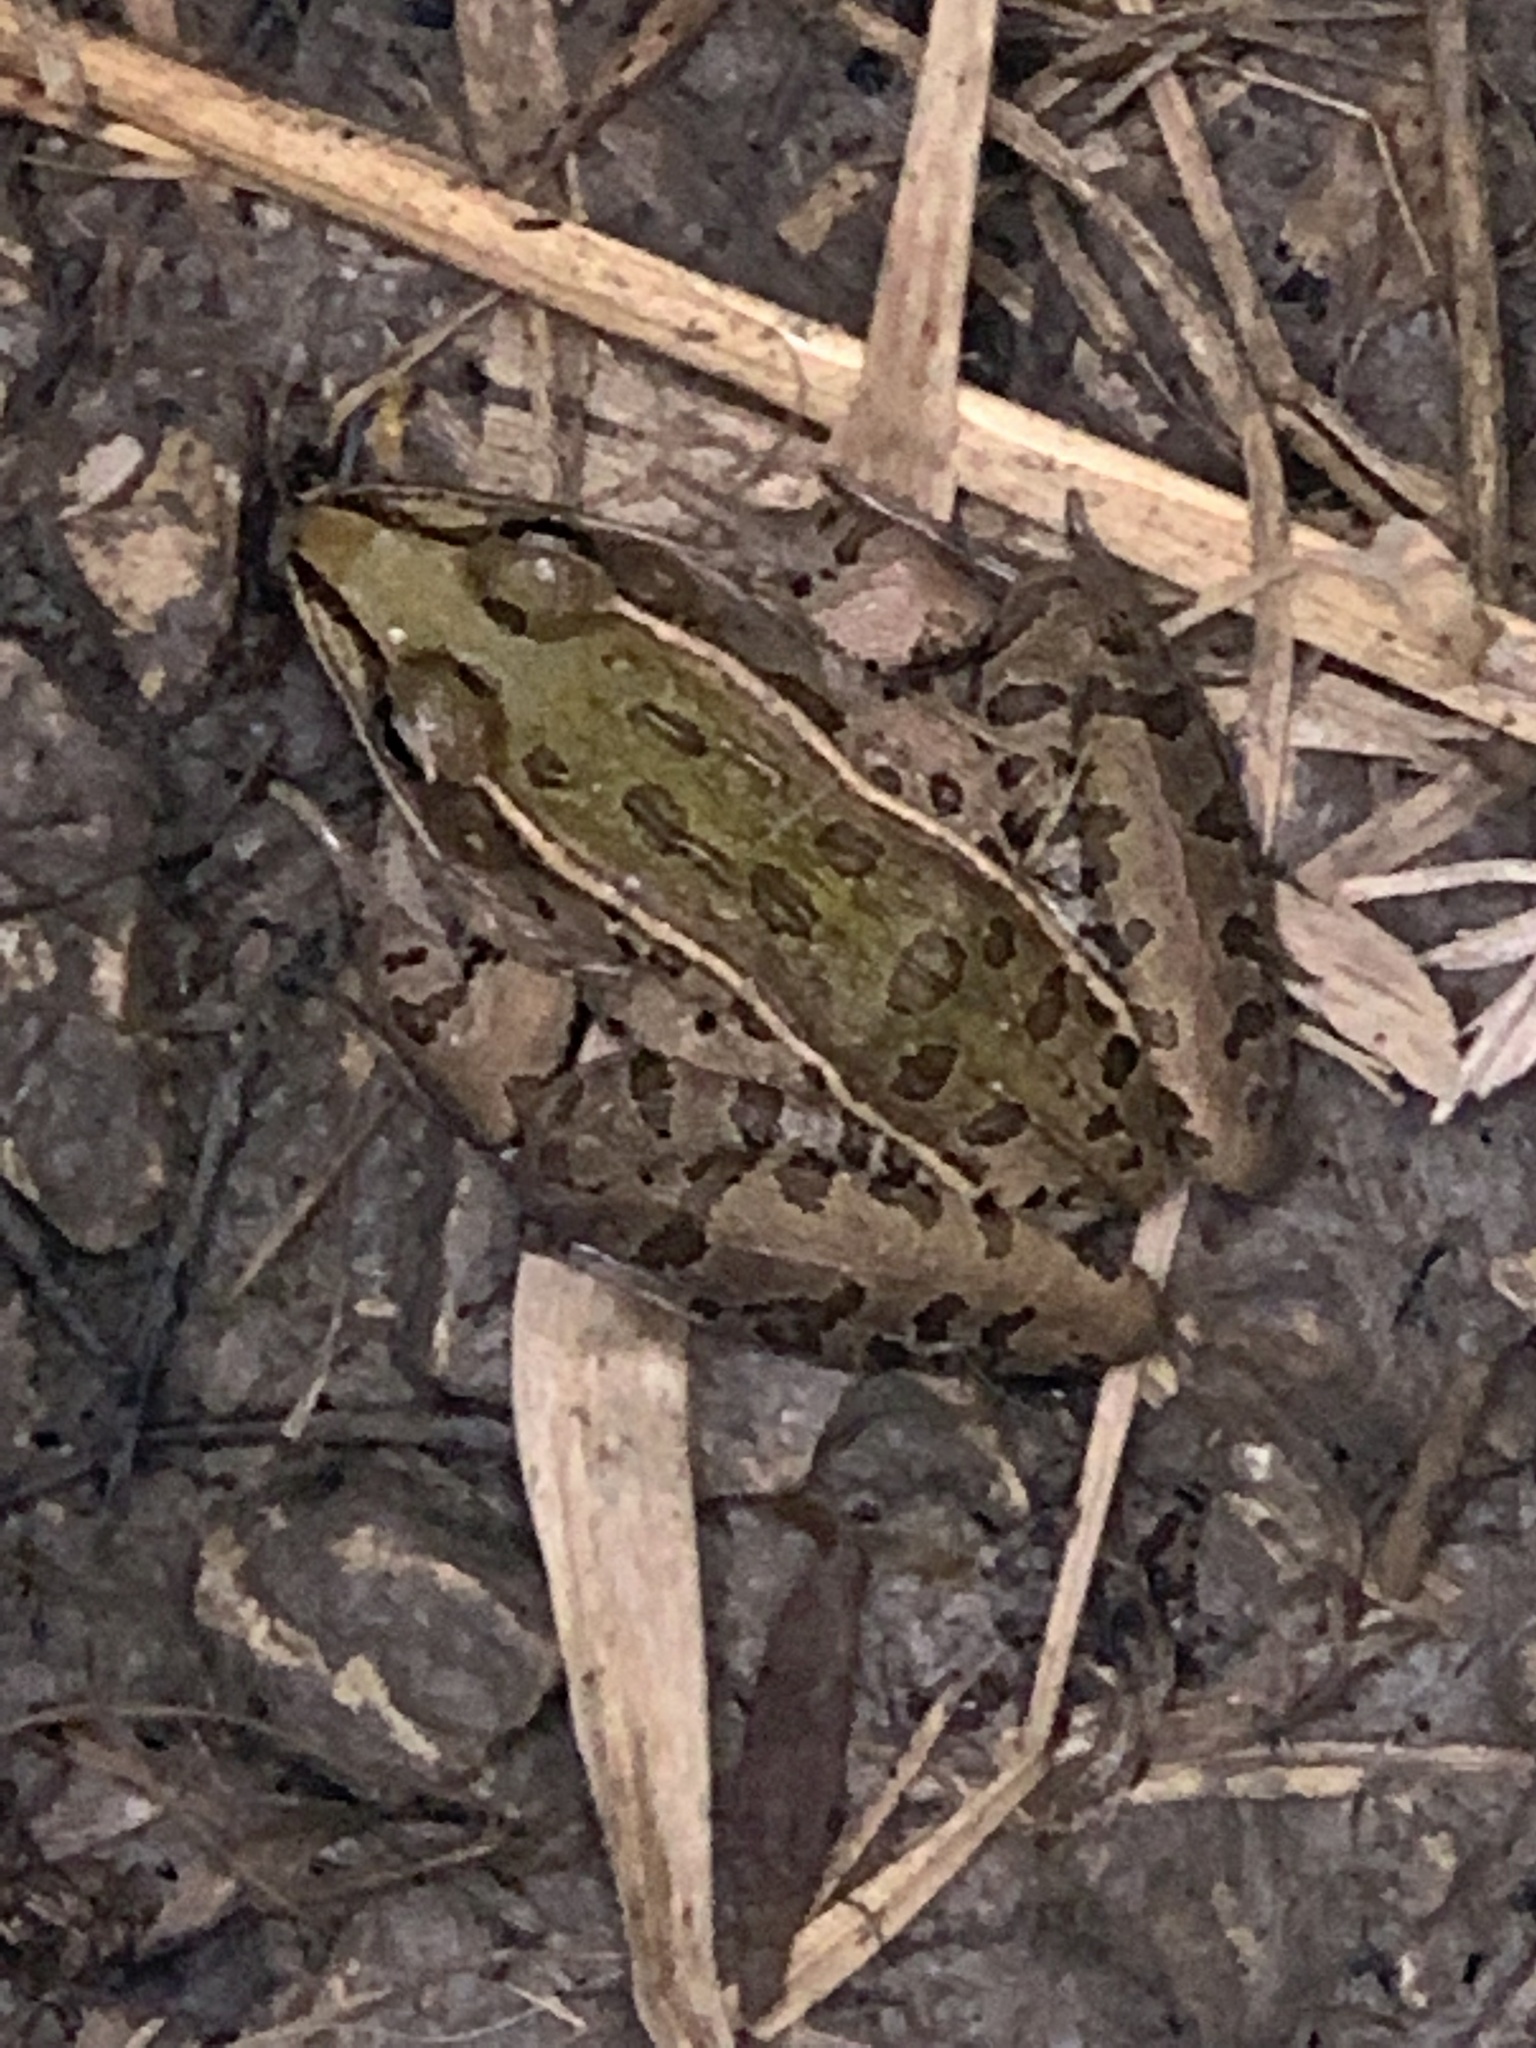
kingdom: Animalia
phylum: Chordata
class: Amphibia
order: Anura
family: Ranidae
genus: Lithobates
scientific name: Lithobates sphenocephalus
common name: Southern leopard frog
